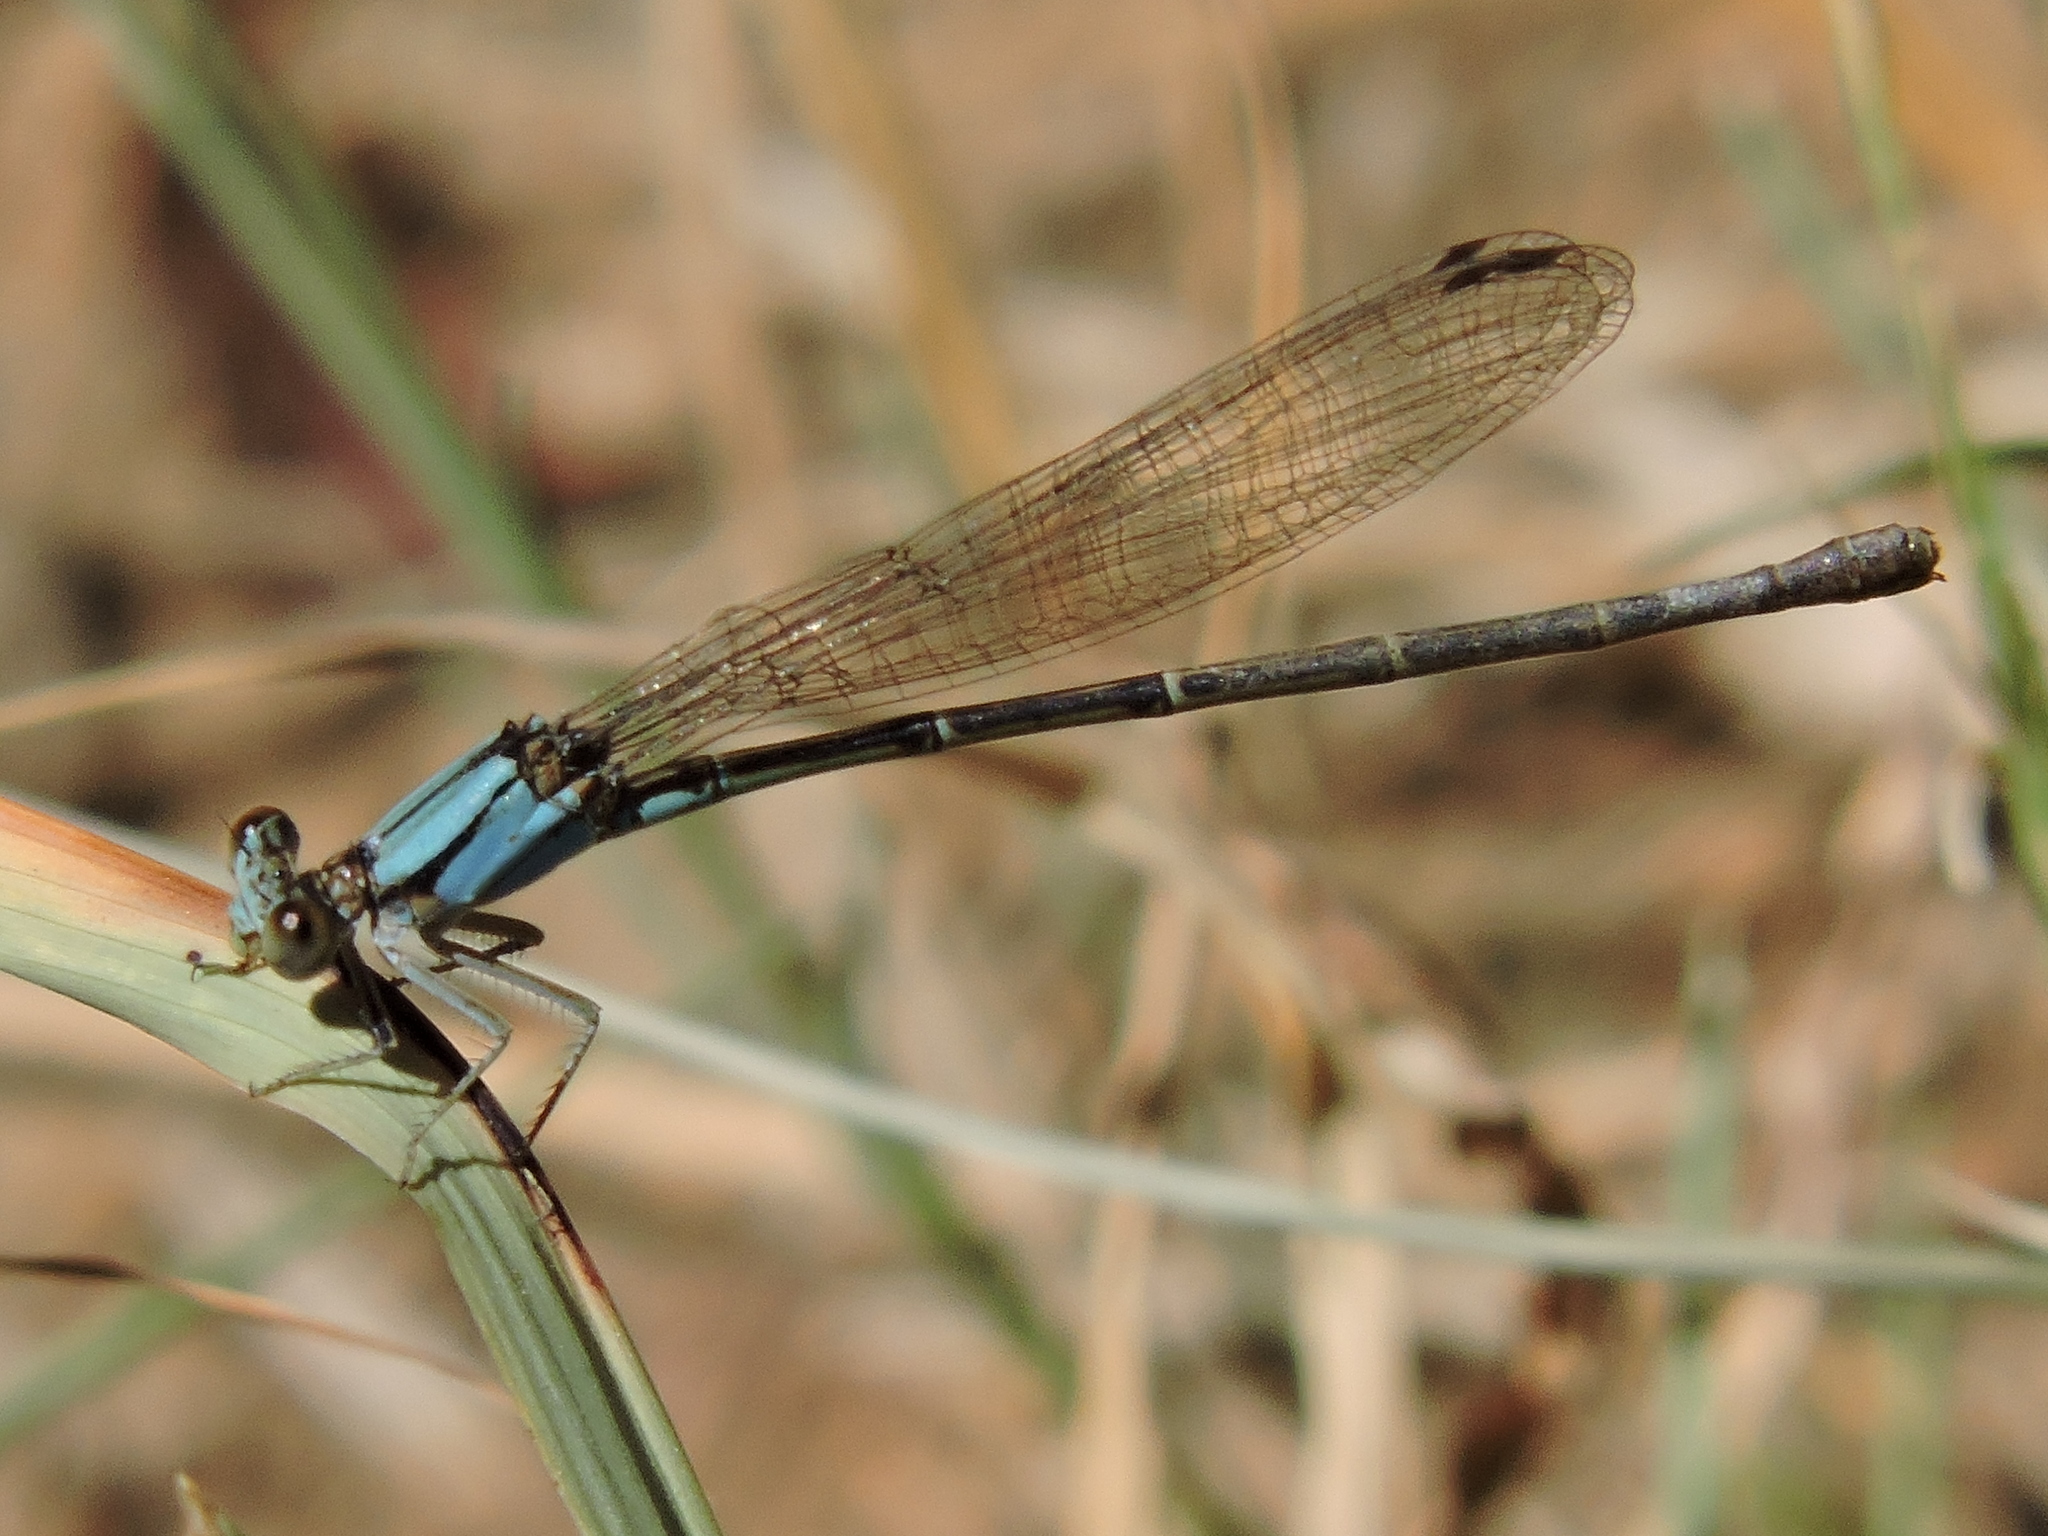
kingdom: Animalia
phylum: Arthropoda
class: Insecta
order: Odonata
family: Coenagrionidae
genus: Argia
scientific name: Argia apicalis
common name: Blue-fronted dancer
